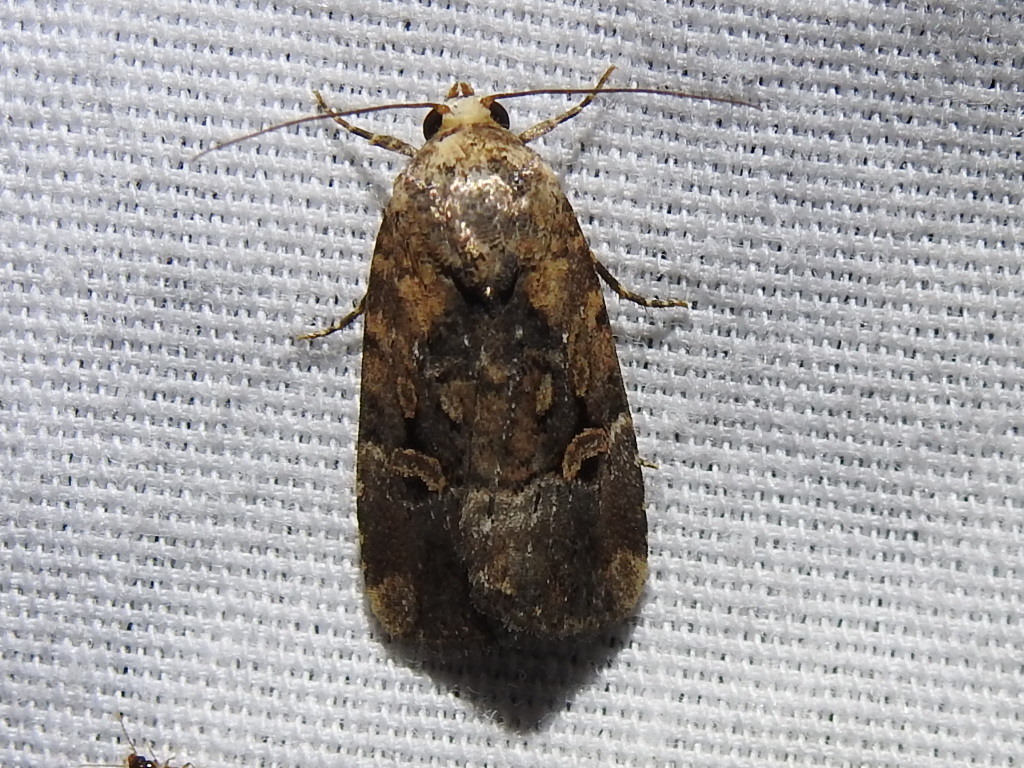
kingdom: Animalia
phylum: Arthropoda
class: Insecta
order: Lepidoptera
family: Noctuidae
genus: Elaphria
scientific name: Elaphria chalcedonia
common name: Chalcedony midget
